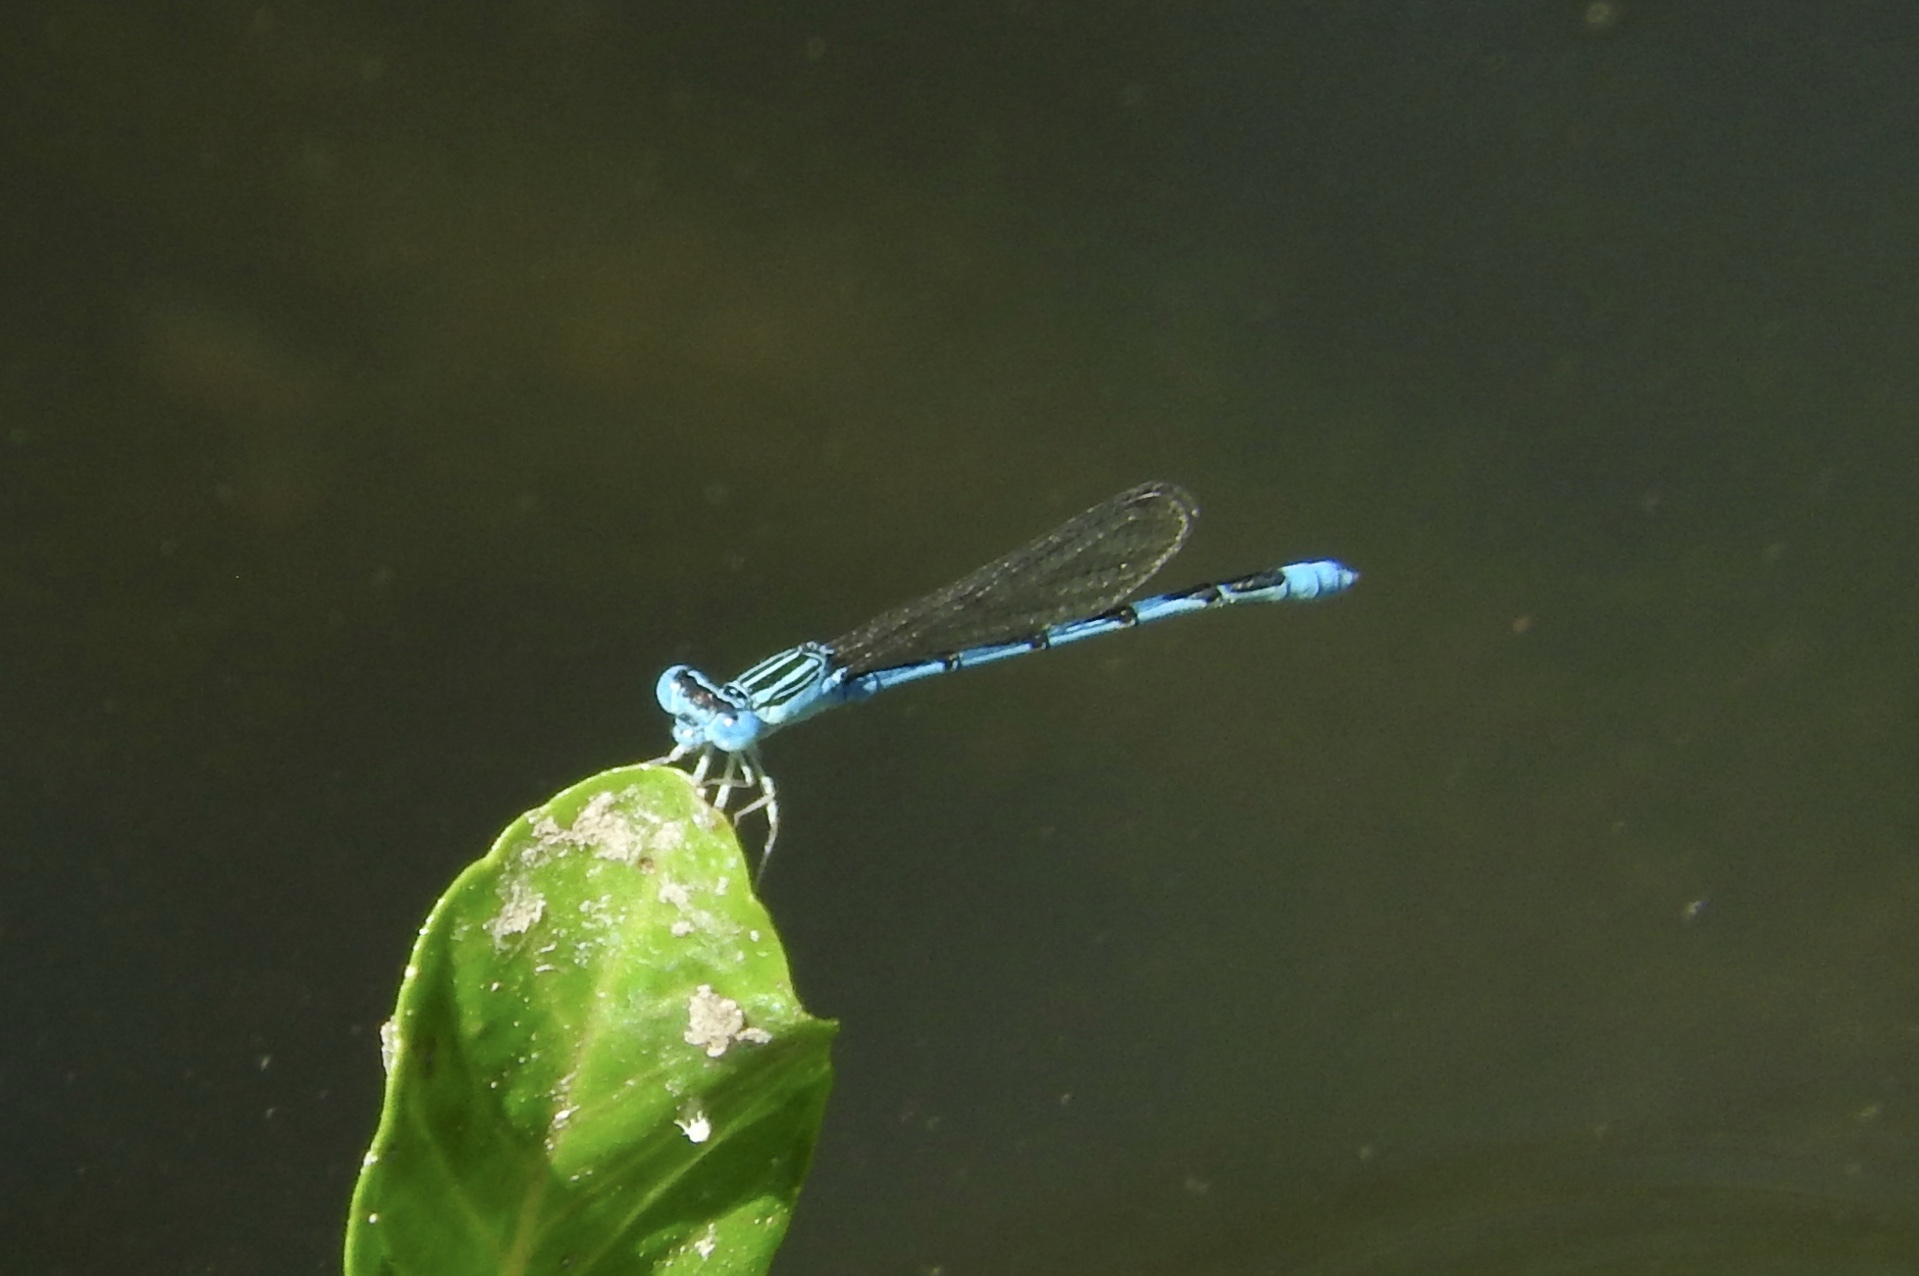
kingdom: Animalia
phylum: Arthropoda
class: Insecta
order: Odonata
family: Coenagrionidae
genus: Enallagma
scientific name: Enallagma basidens
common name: Double-striped bluet
